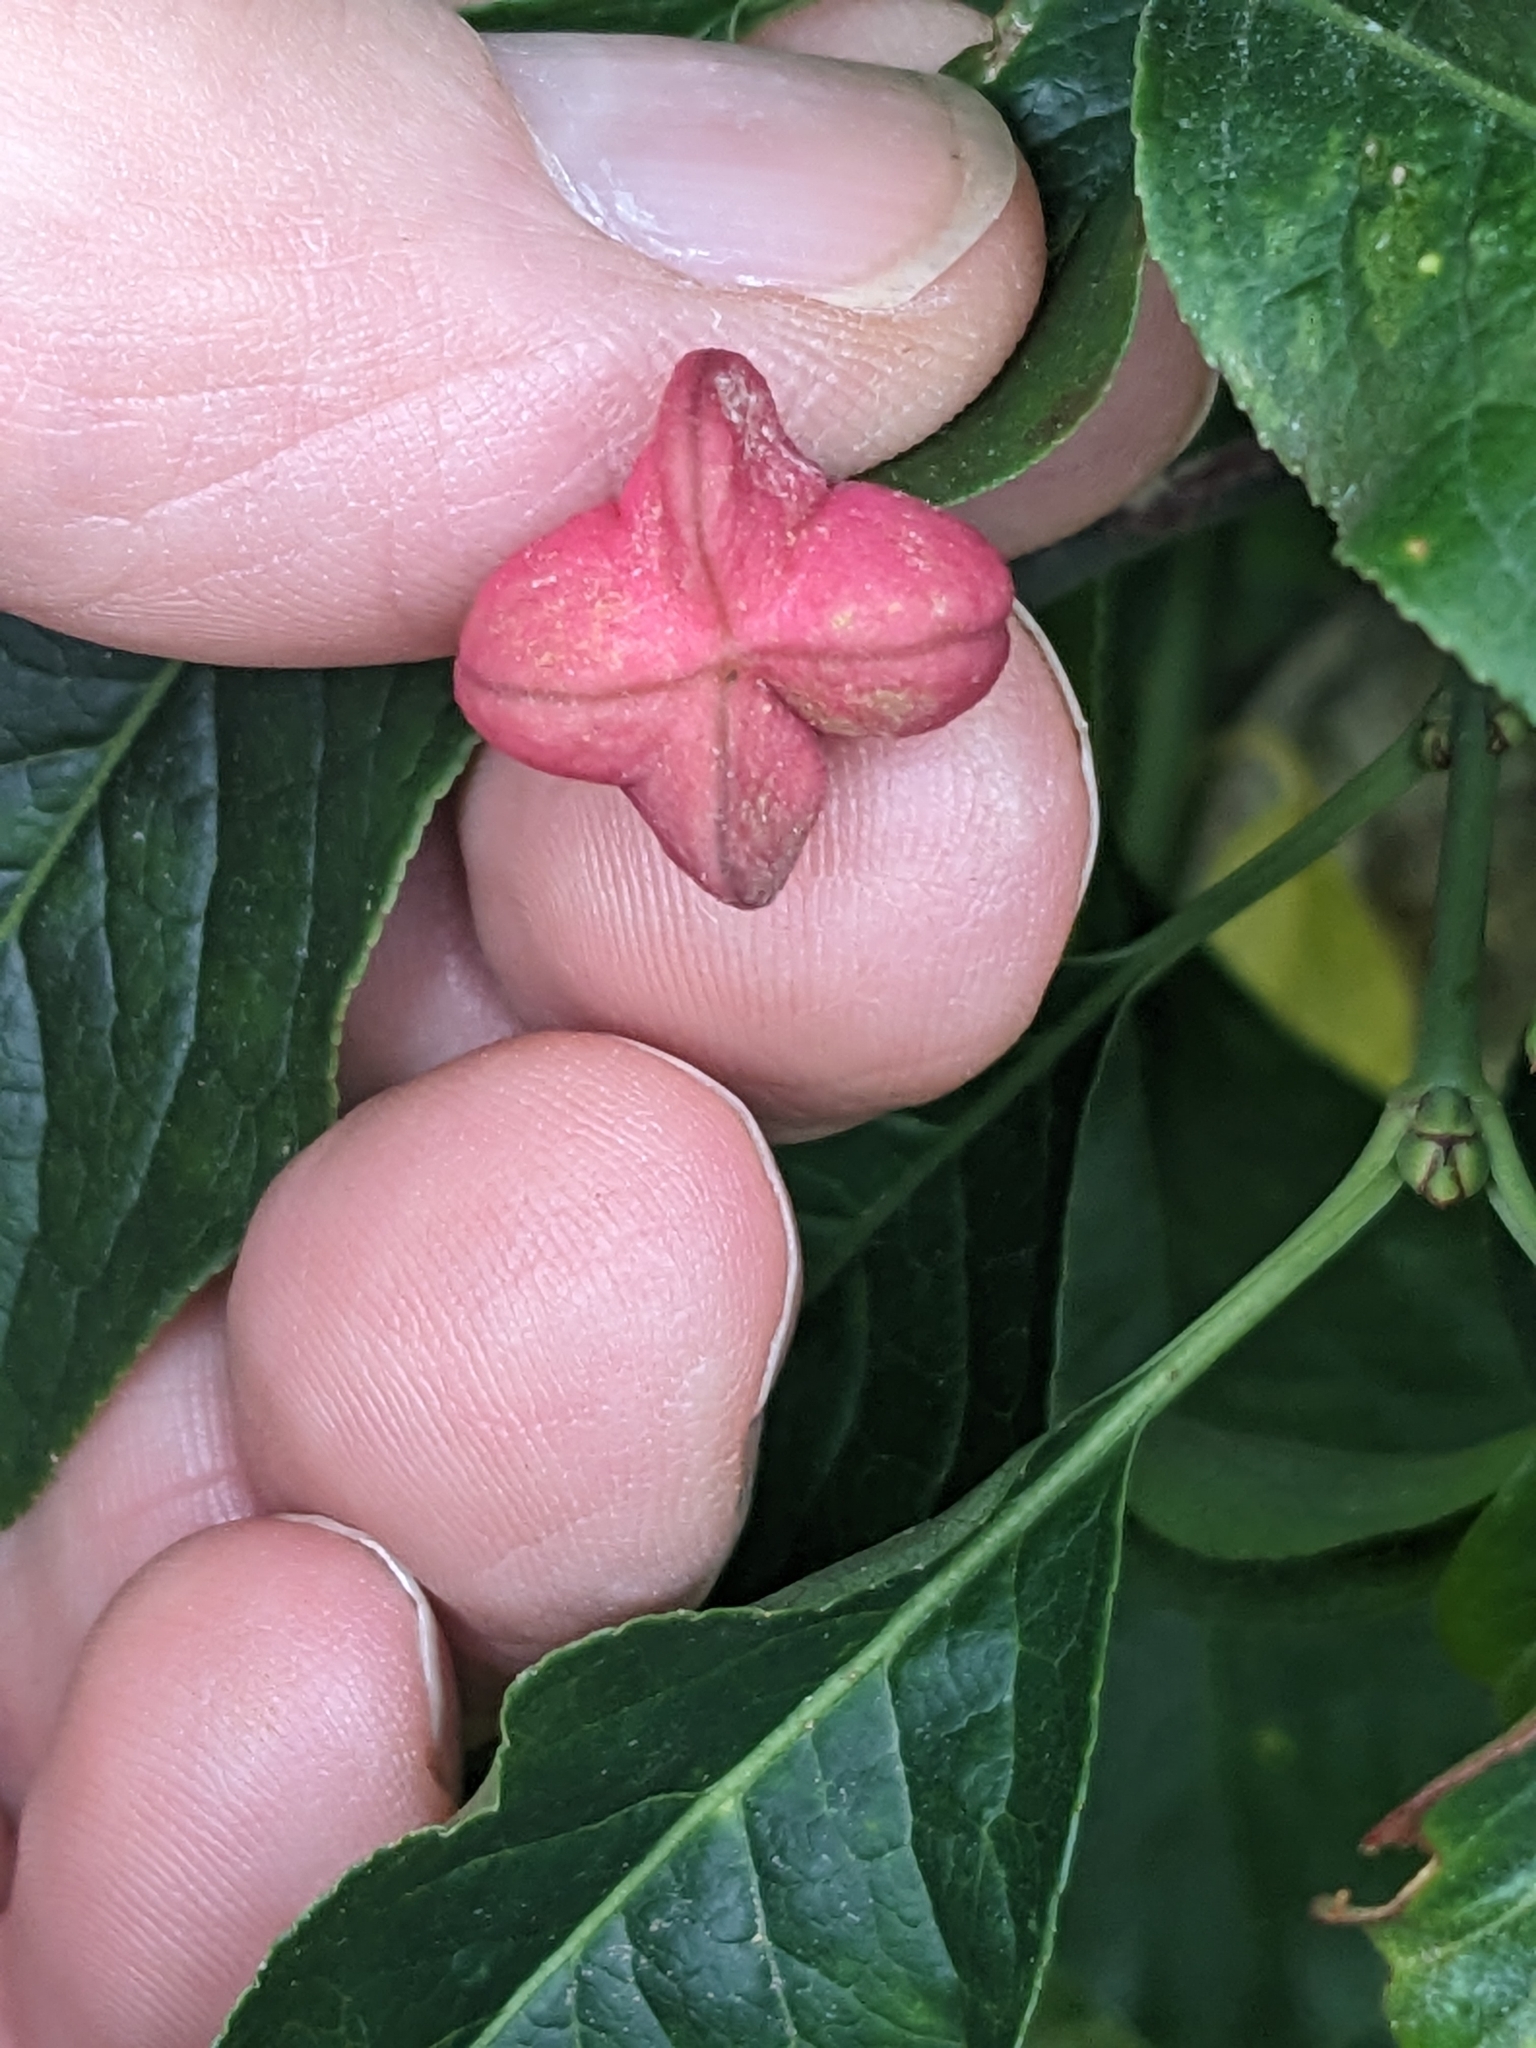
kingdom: Plantae
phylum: Tracheophyta
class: Magnoliopsida
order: Celastrales
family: Celastraceae
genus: Euonymus
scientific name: Euonymus europaeus
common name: Spindle
